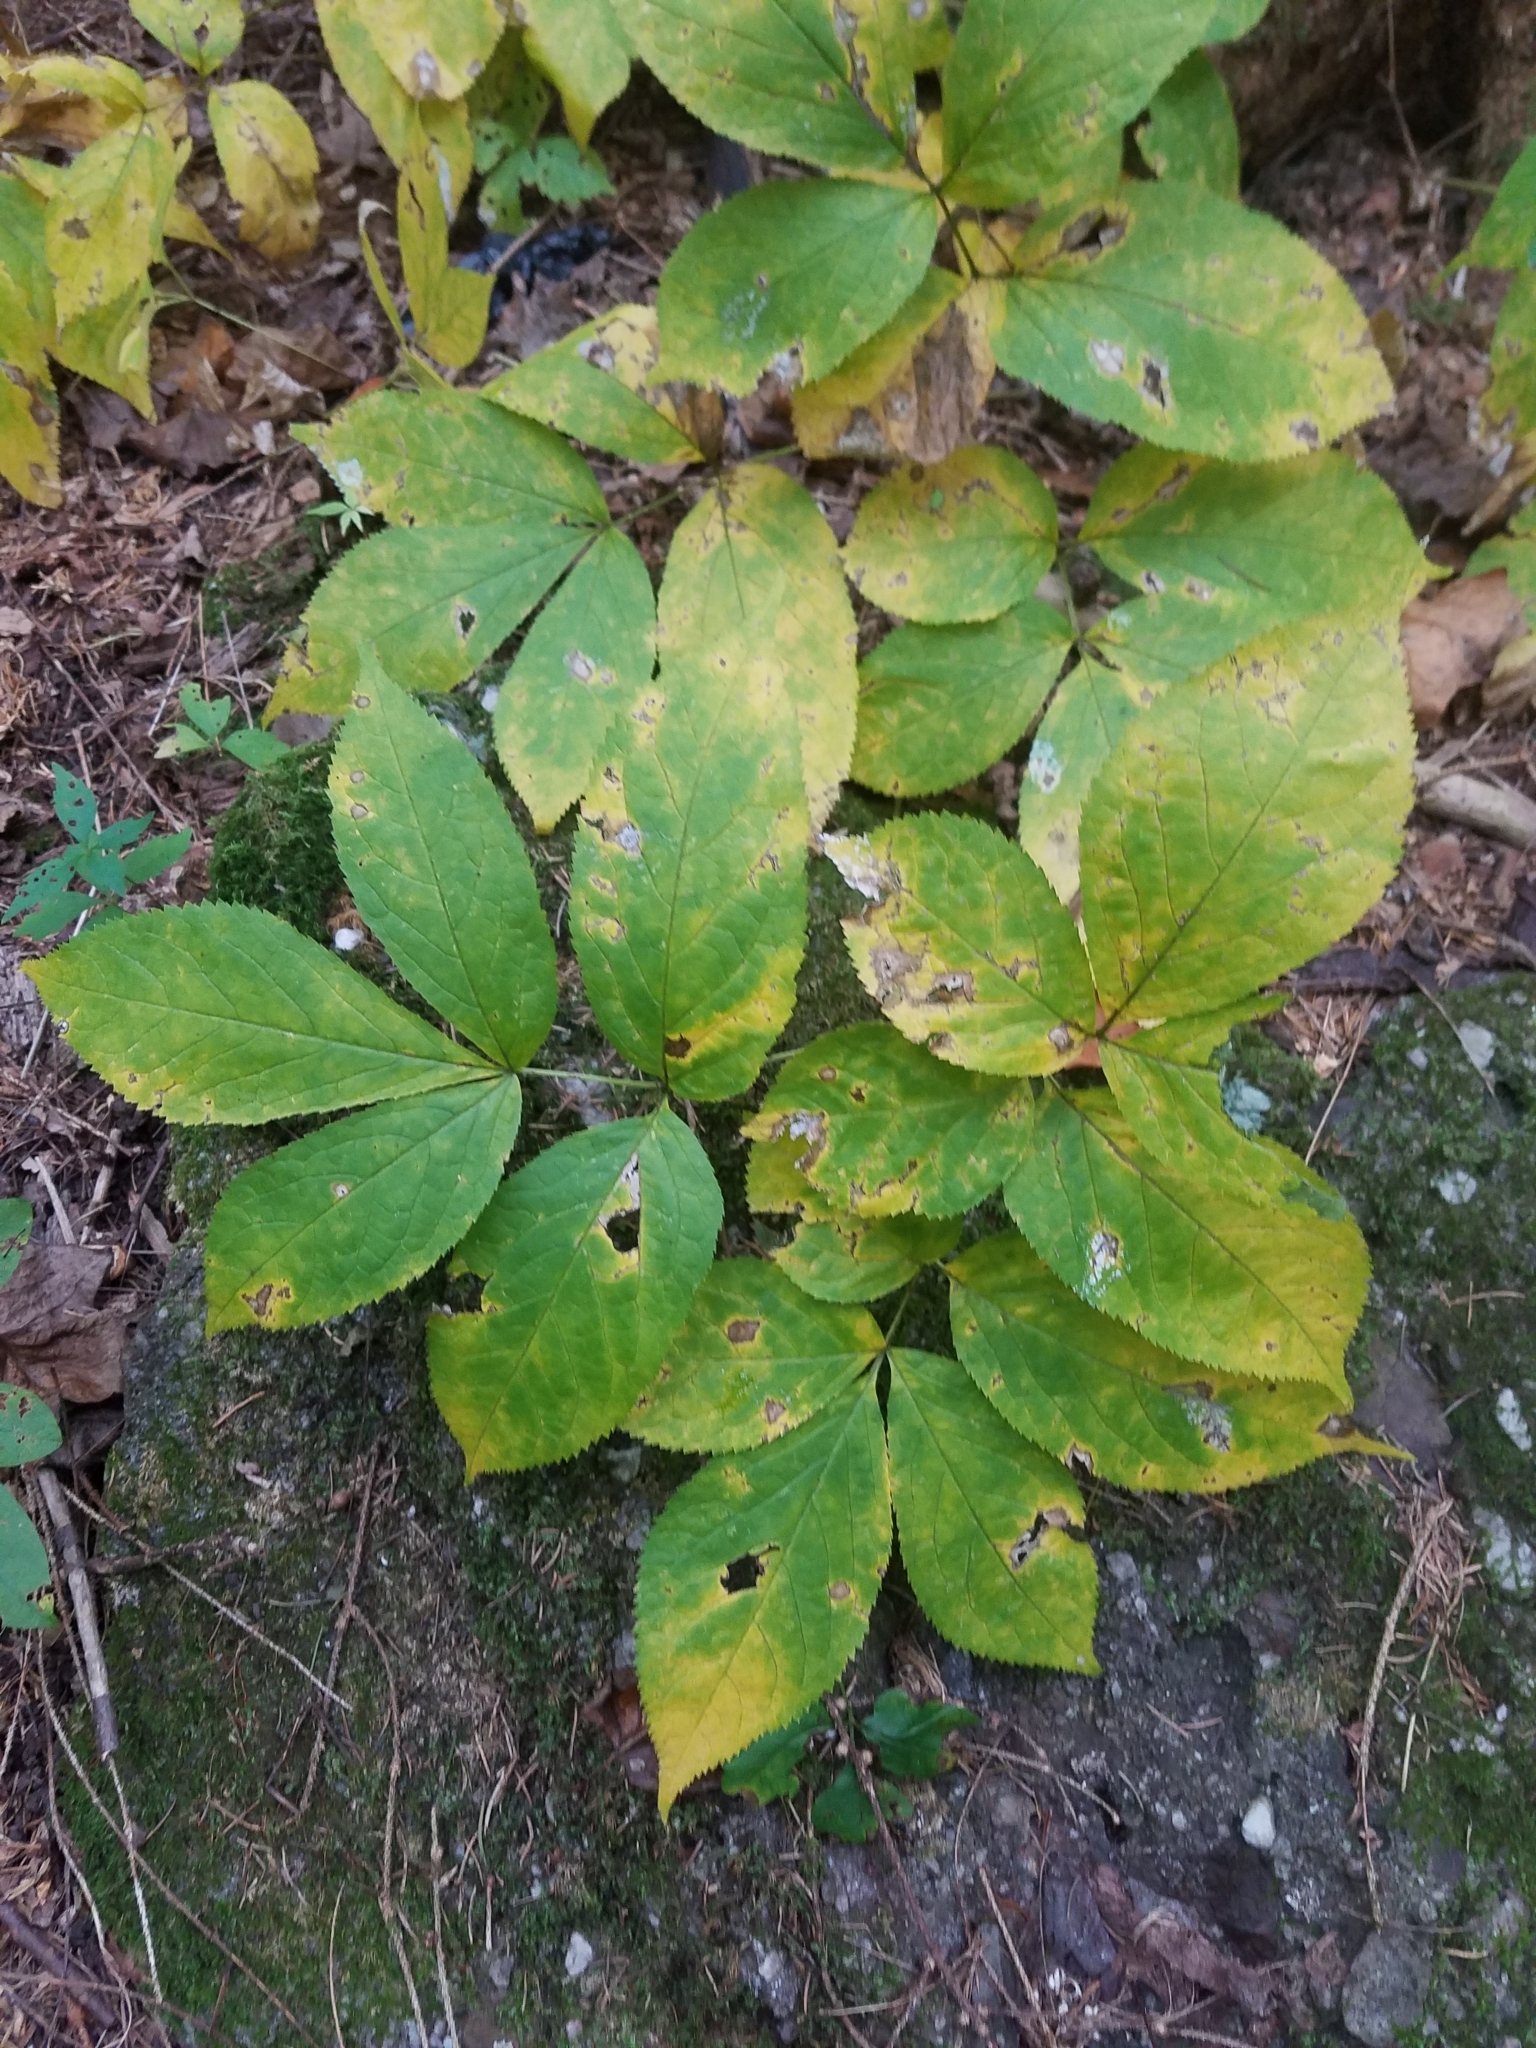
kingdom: Plantae
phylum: Tracheophyta
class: Magnoliopsida
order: Apiales
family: Araliaceae
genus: Aralia
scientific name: Aralia nudicaulis
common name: Wild sarsaparilla
